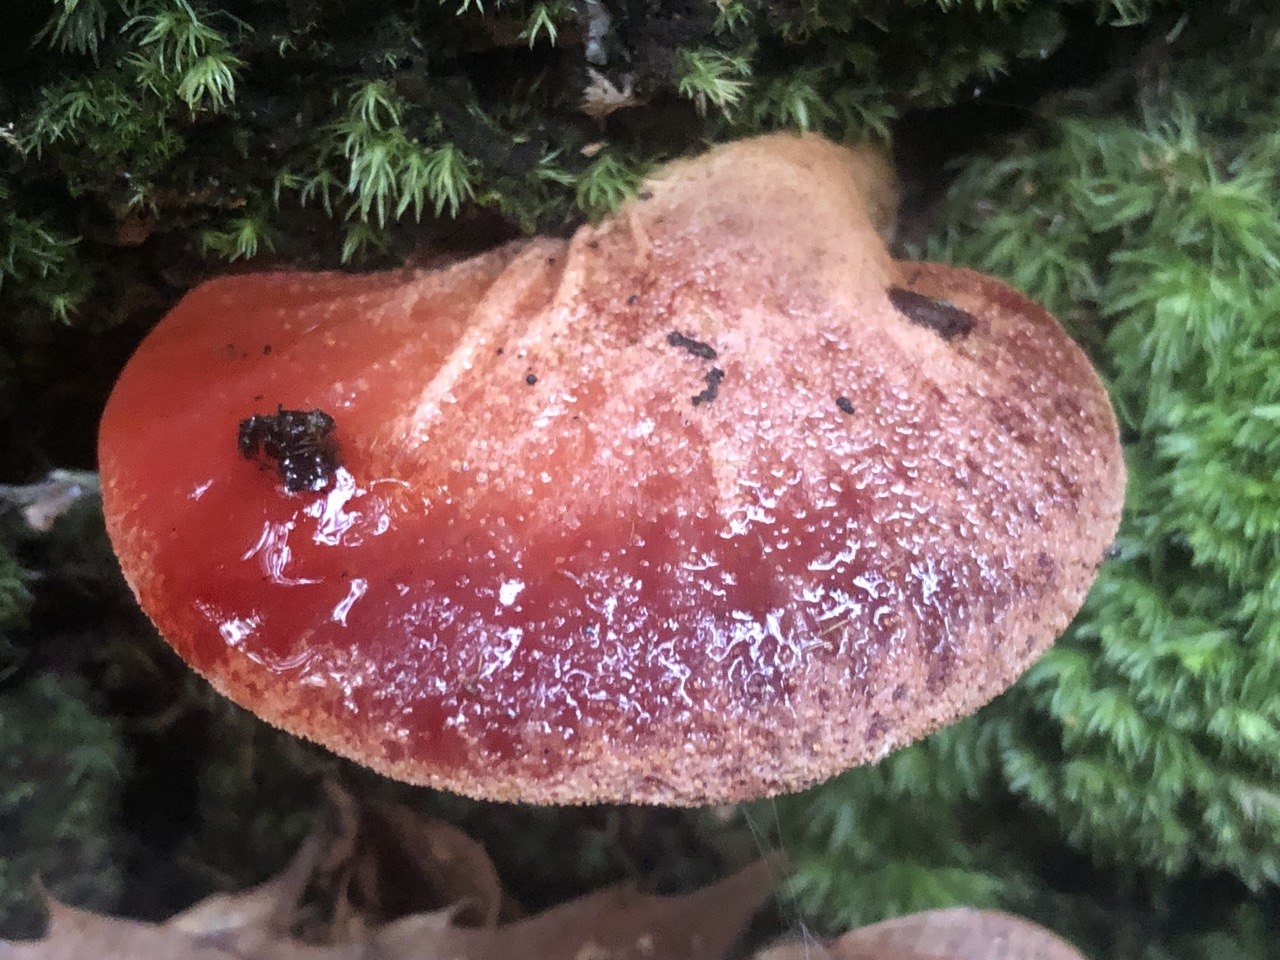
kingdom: Fungi
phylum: Basidiomycota
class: Agaricomycetes
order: Agaricales
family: Fistulinaceae
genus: Fistulina
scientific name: Fistulina hepatica
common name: Beef-steak fungus
